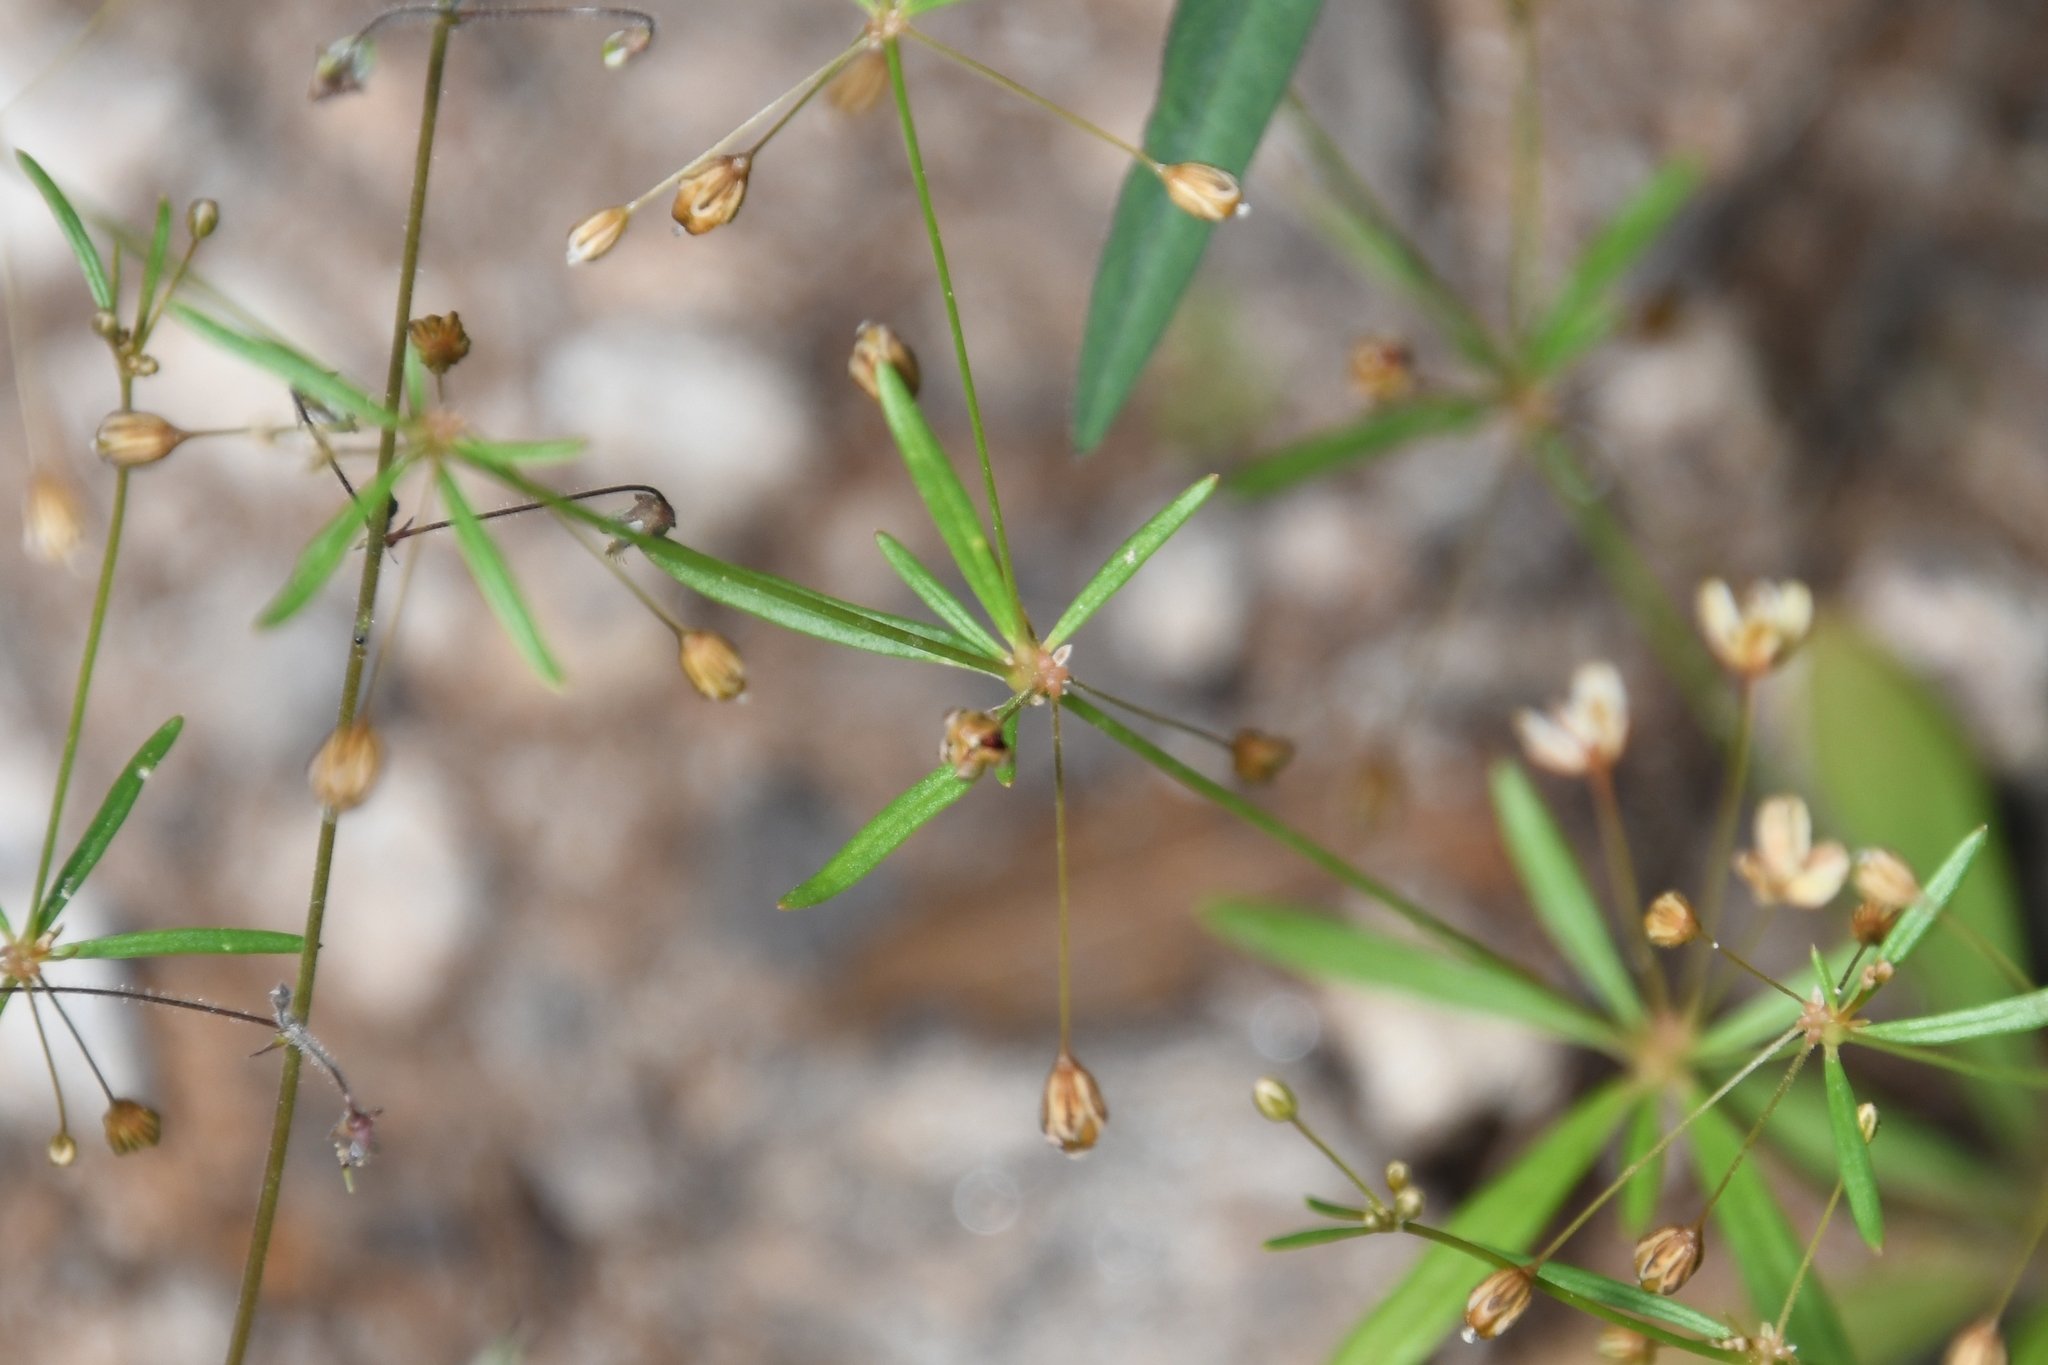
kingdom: Plantae
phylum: Tracheophyta
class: Magnoliopsida
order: Caryophyllales
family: Molluginaceae
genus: Mollugo
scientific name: Mollugo verticillata
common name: Green carpetweed
